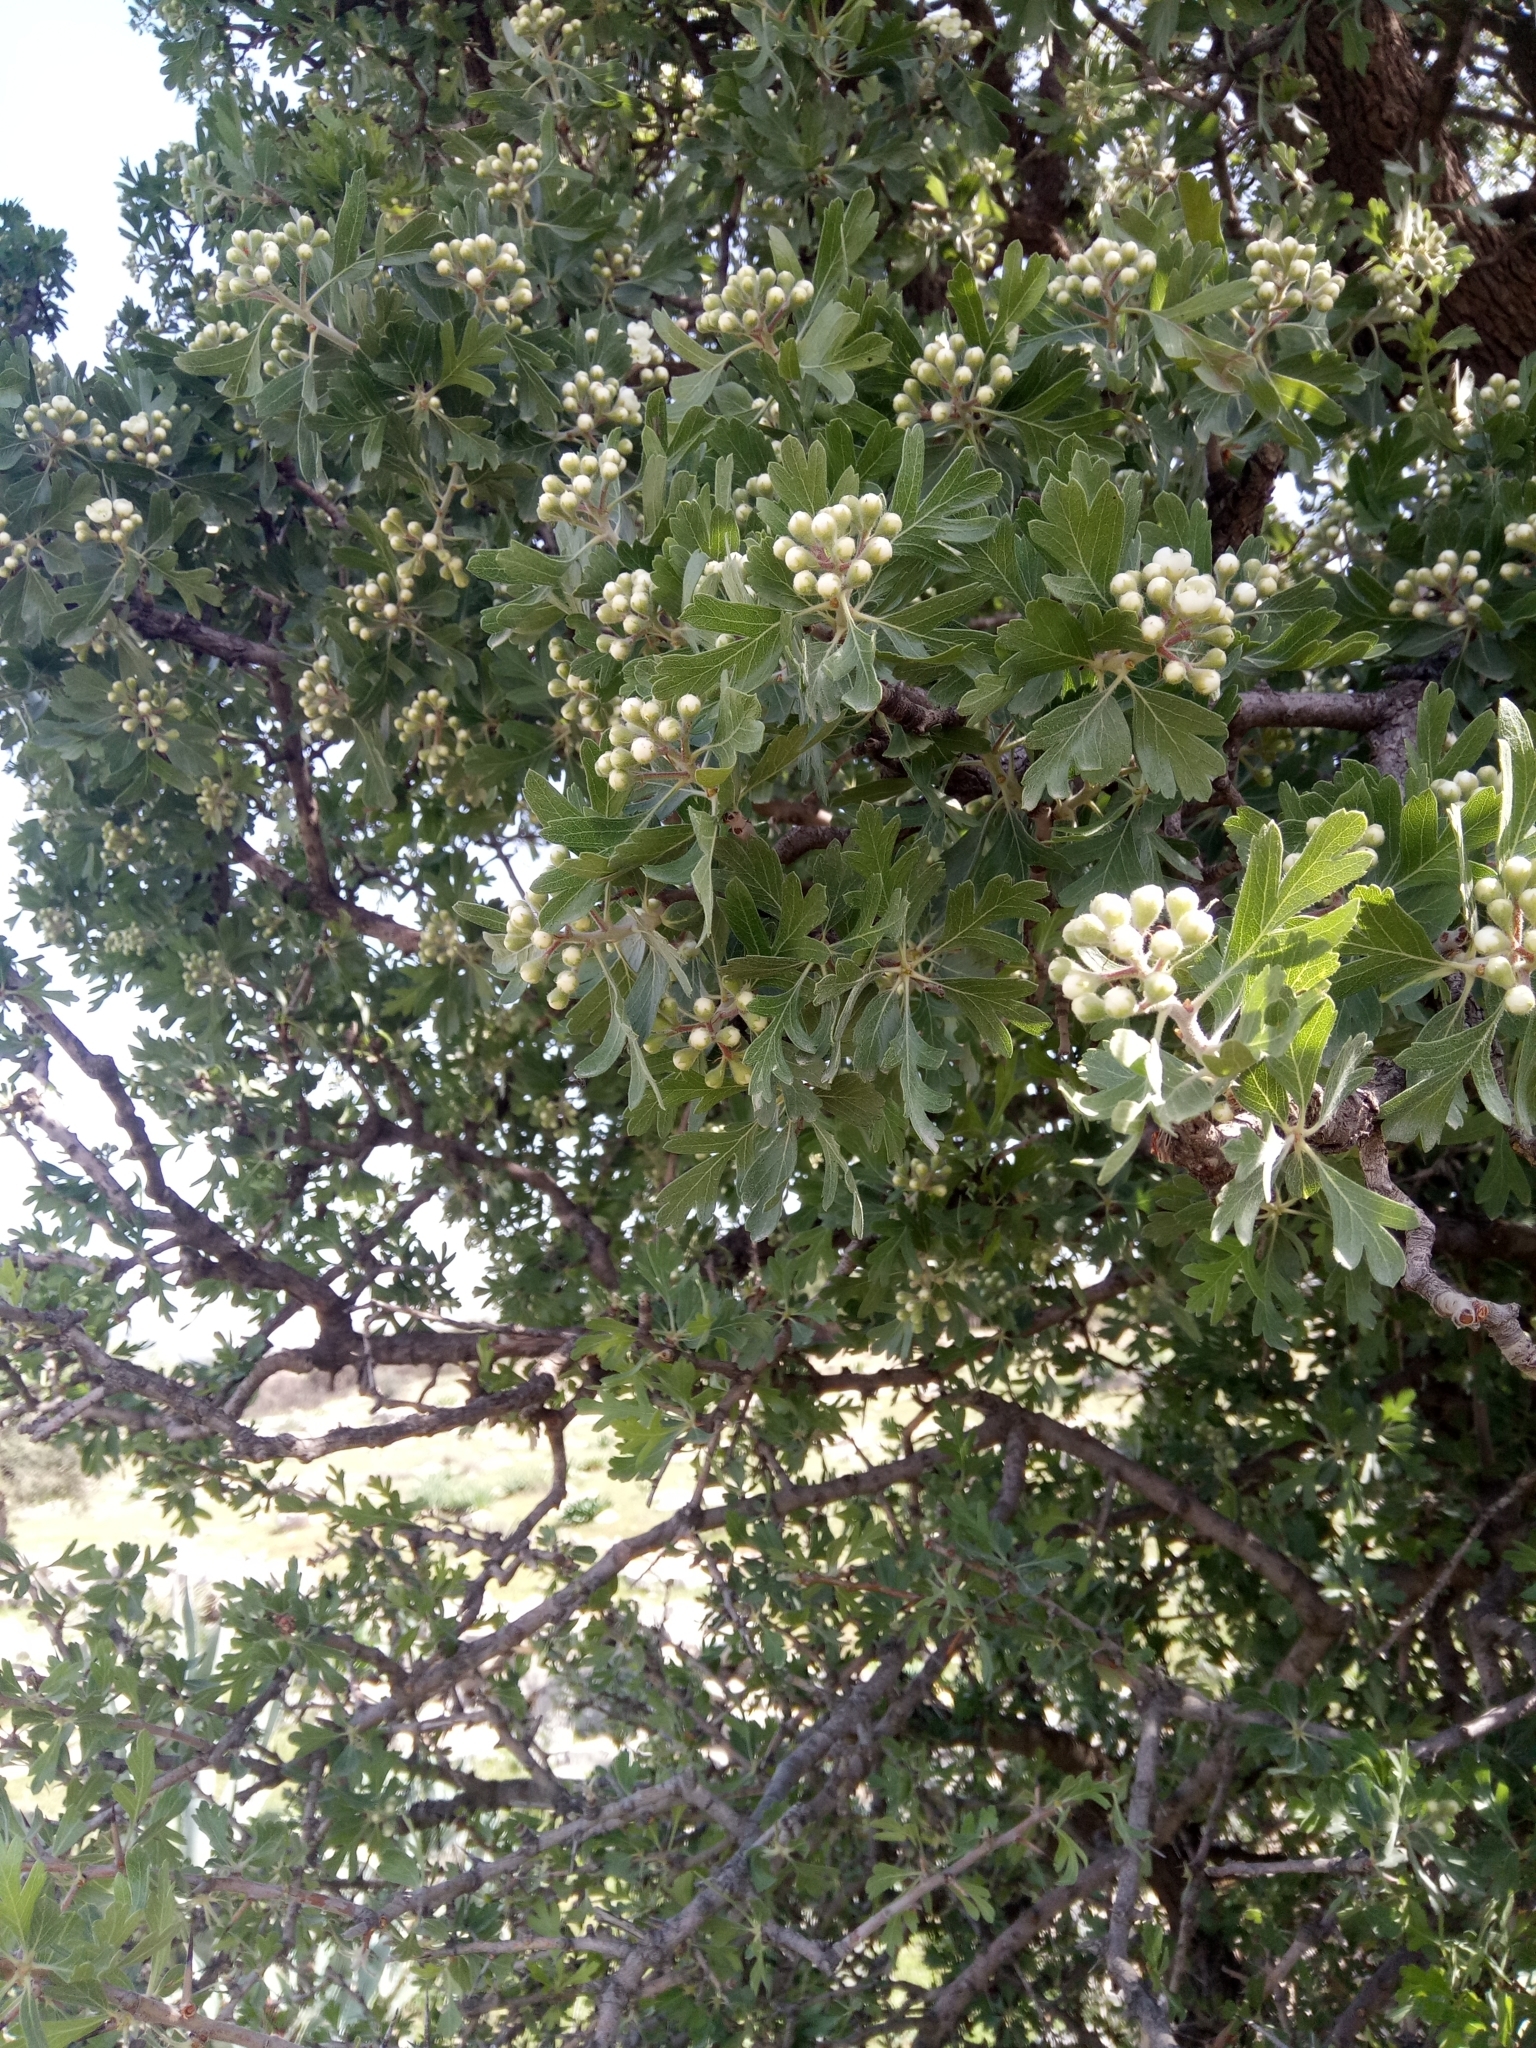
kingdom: Plantae
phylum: Tracheophyta
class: Magnoliopsida
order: Rosales
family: Rosaceae
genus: Crataegus
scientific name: Crataegus azarolus
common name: Azarole
